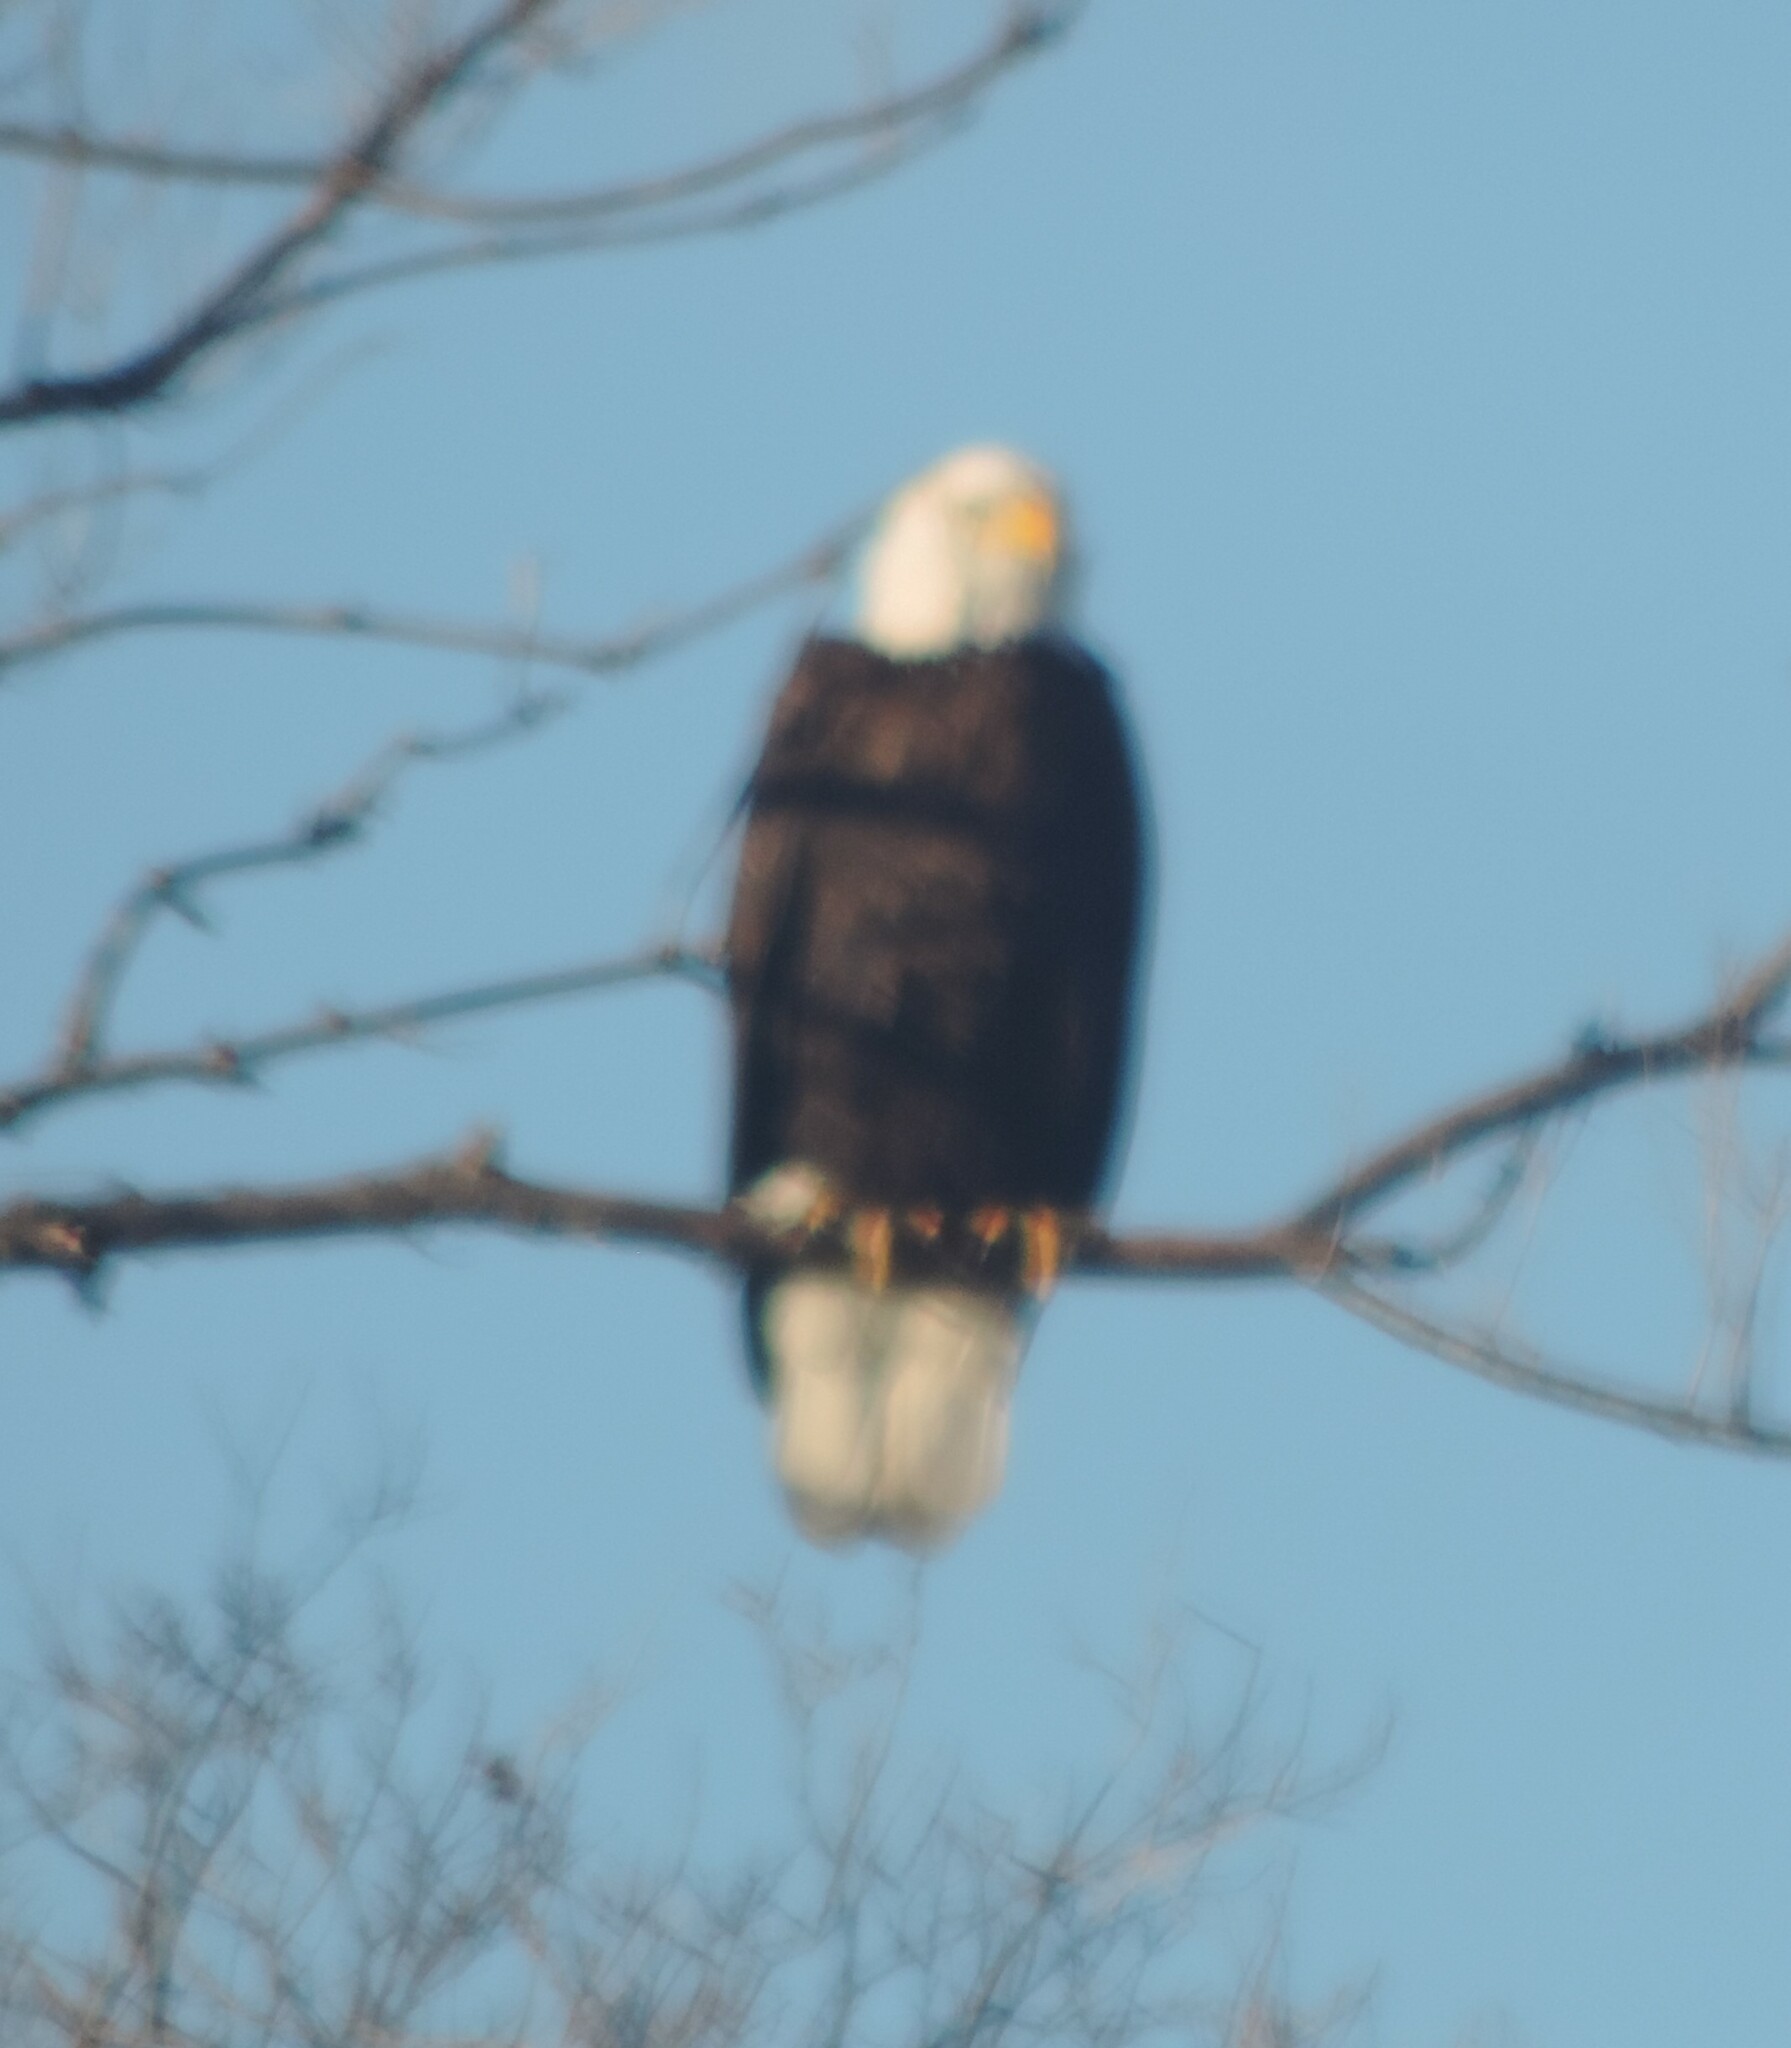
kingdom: Animalia
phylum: Chordata
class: Aves
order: Accipitriformes
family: Accipitridae
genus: Haliaeetus
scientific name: Haliaeetus leucocephalus
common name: Bald eagle
